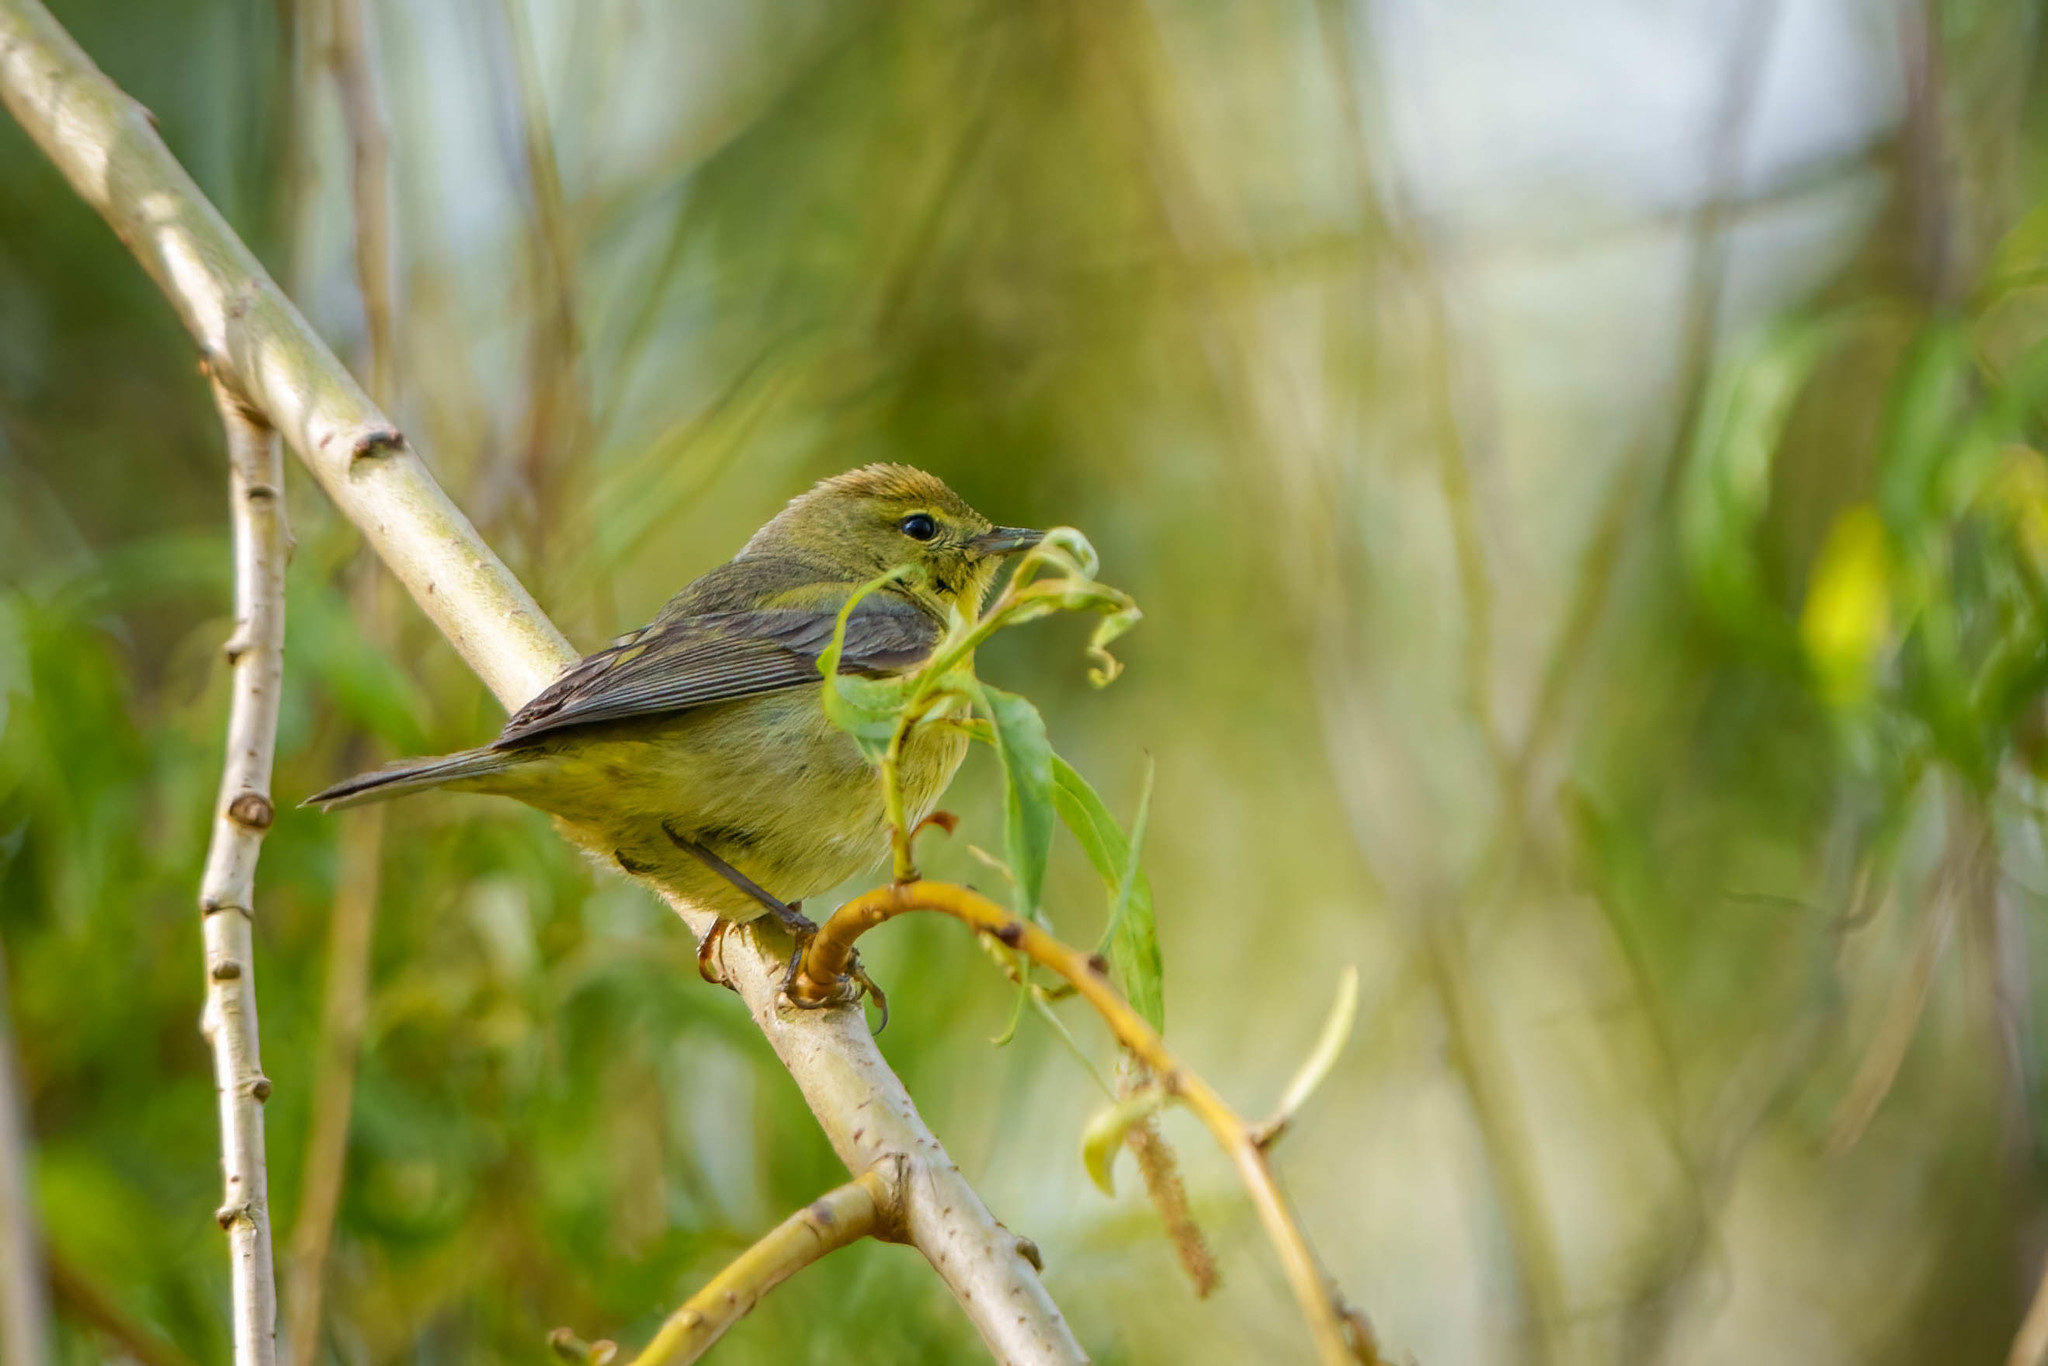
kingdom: Animalia
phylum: Chordata
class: Aves
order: Passeriformes
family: Parulidae
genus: Leiothlypis
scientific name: Leiothlypis celata
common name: Orange-crowned warbler
